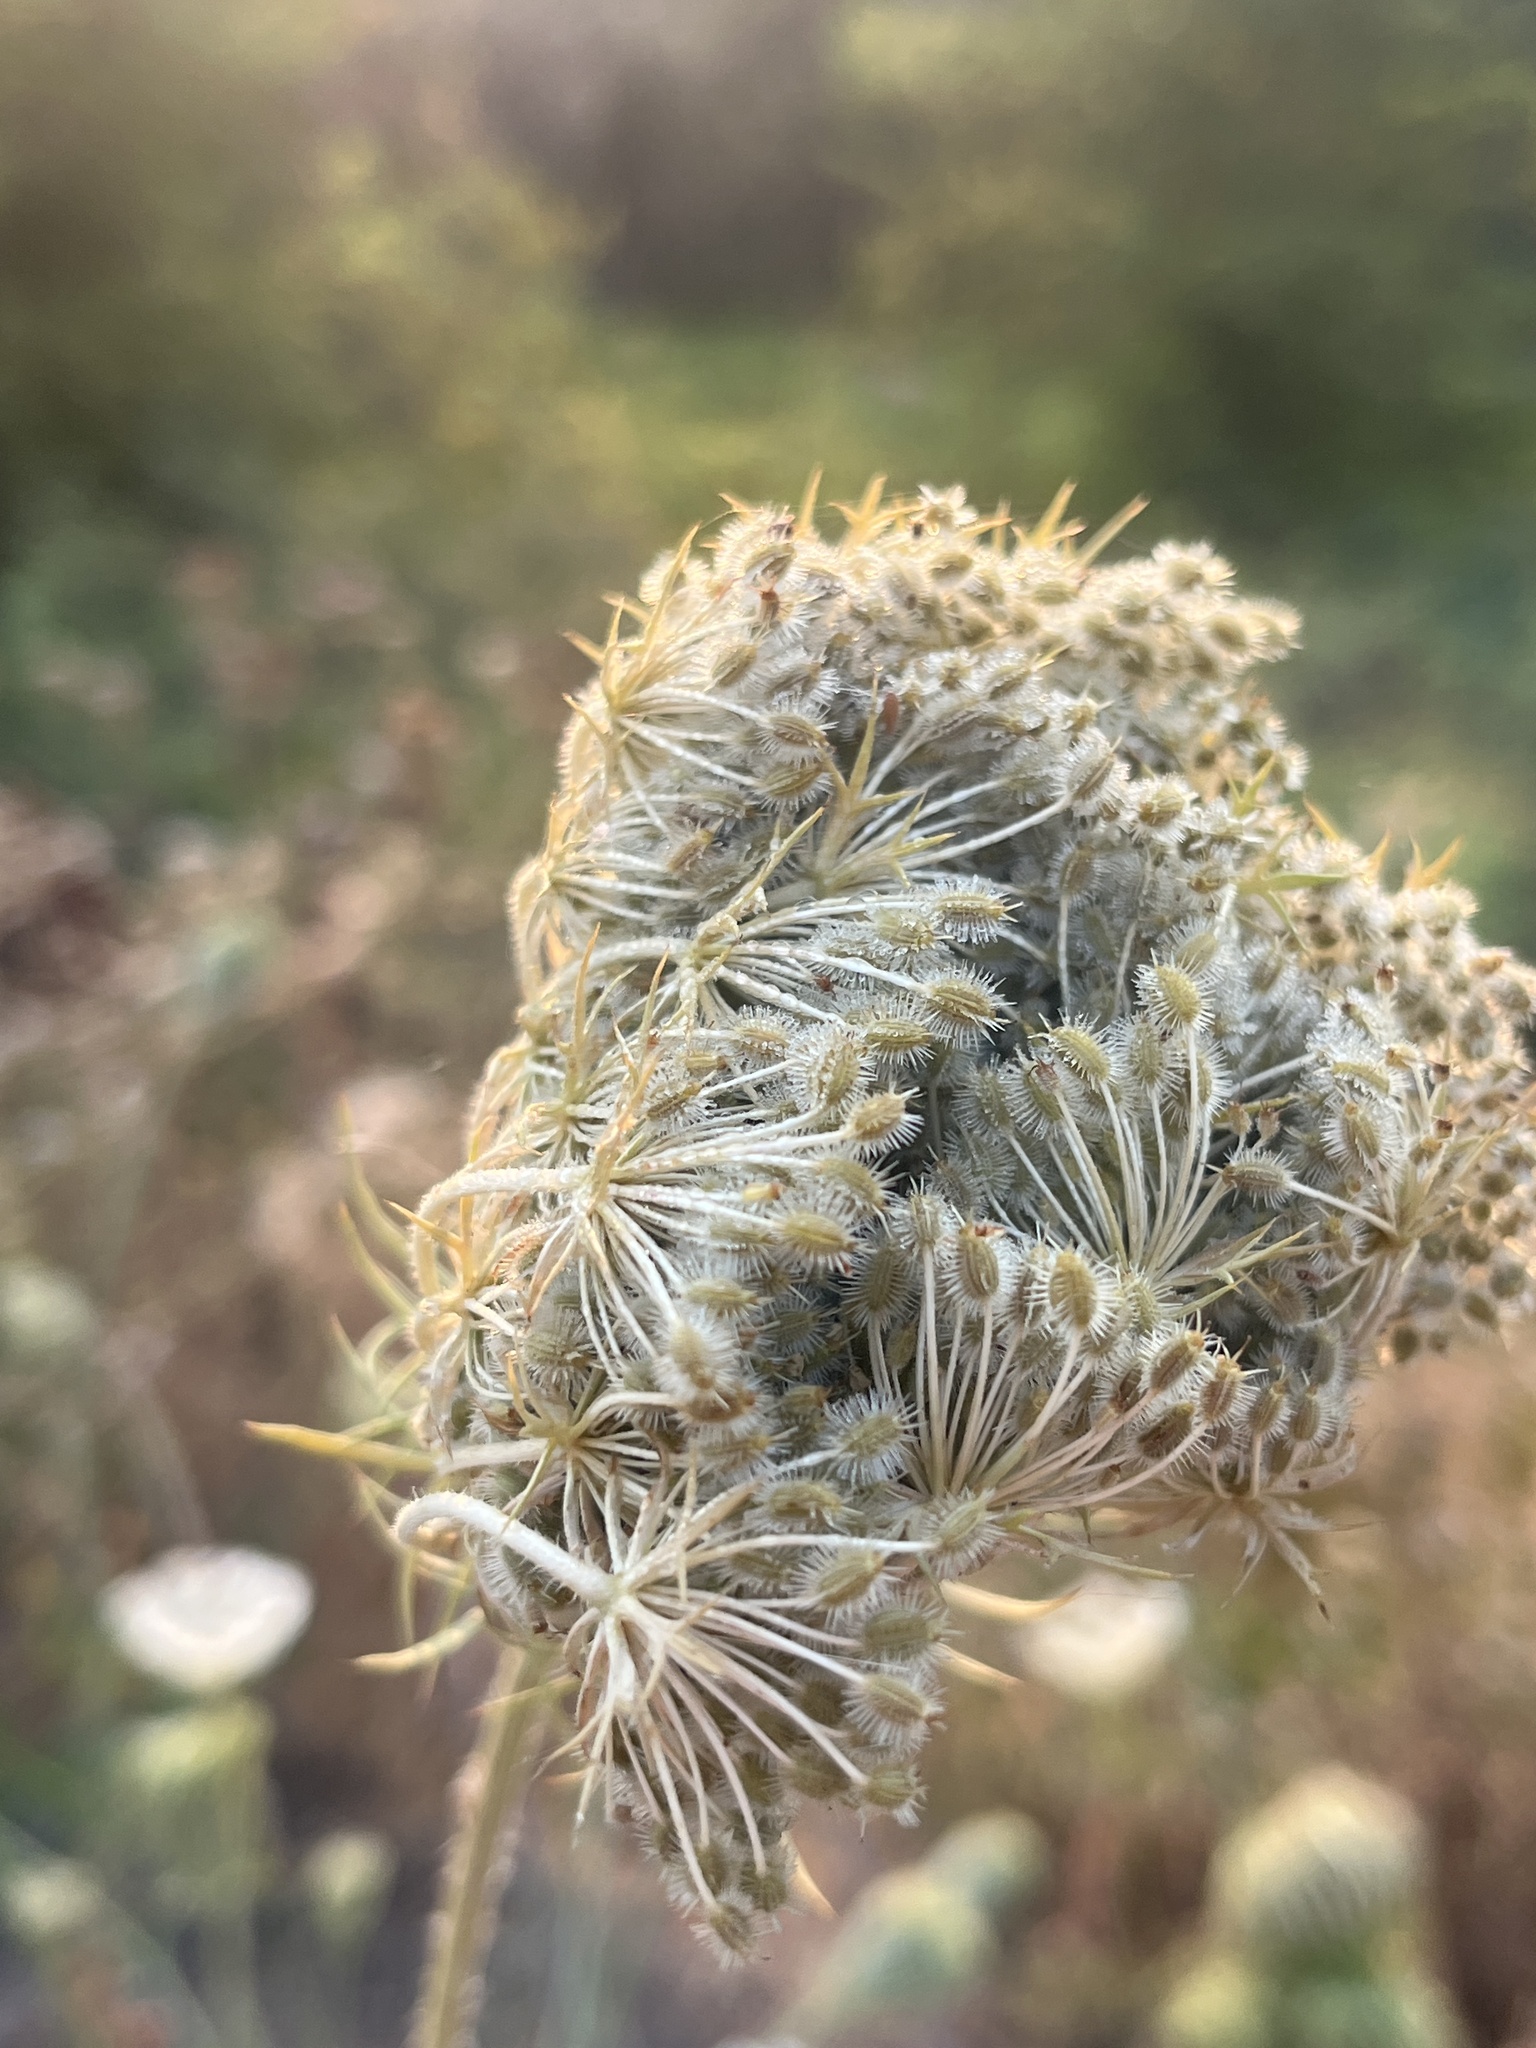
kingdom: Plantae
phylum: Tracheophyta
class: Magnoliopsida
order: Apiales
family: Apiaceae
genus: Daucus
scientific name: Daucus carota
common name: Wild carrot
